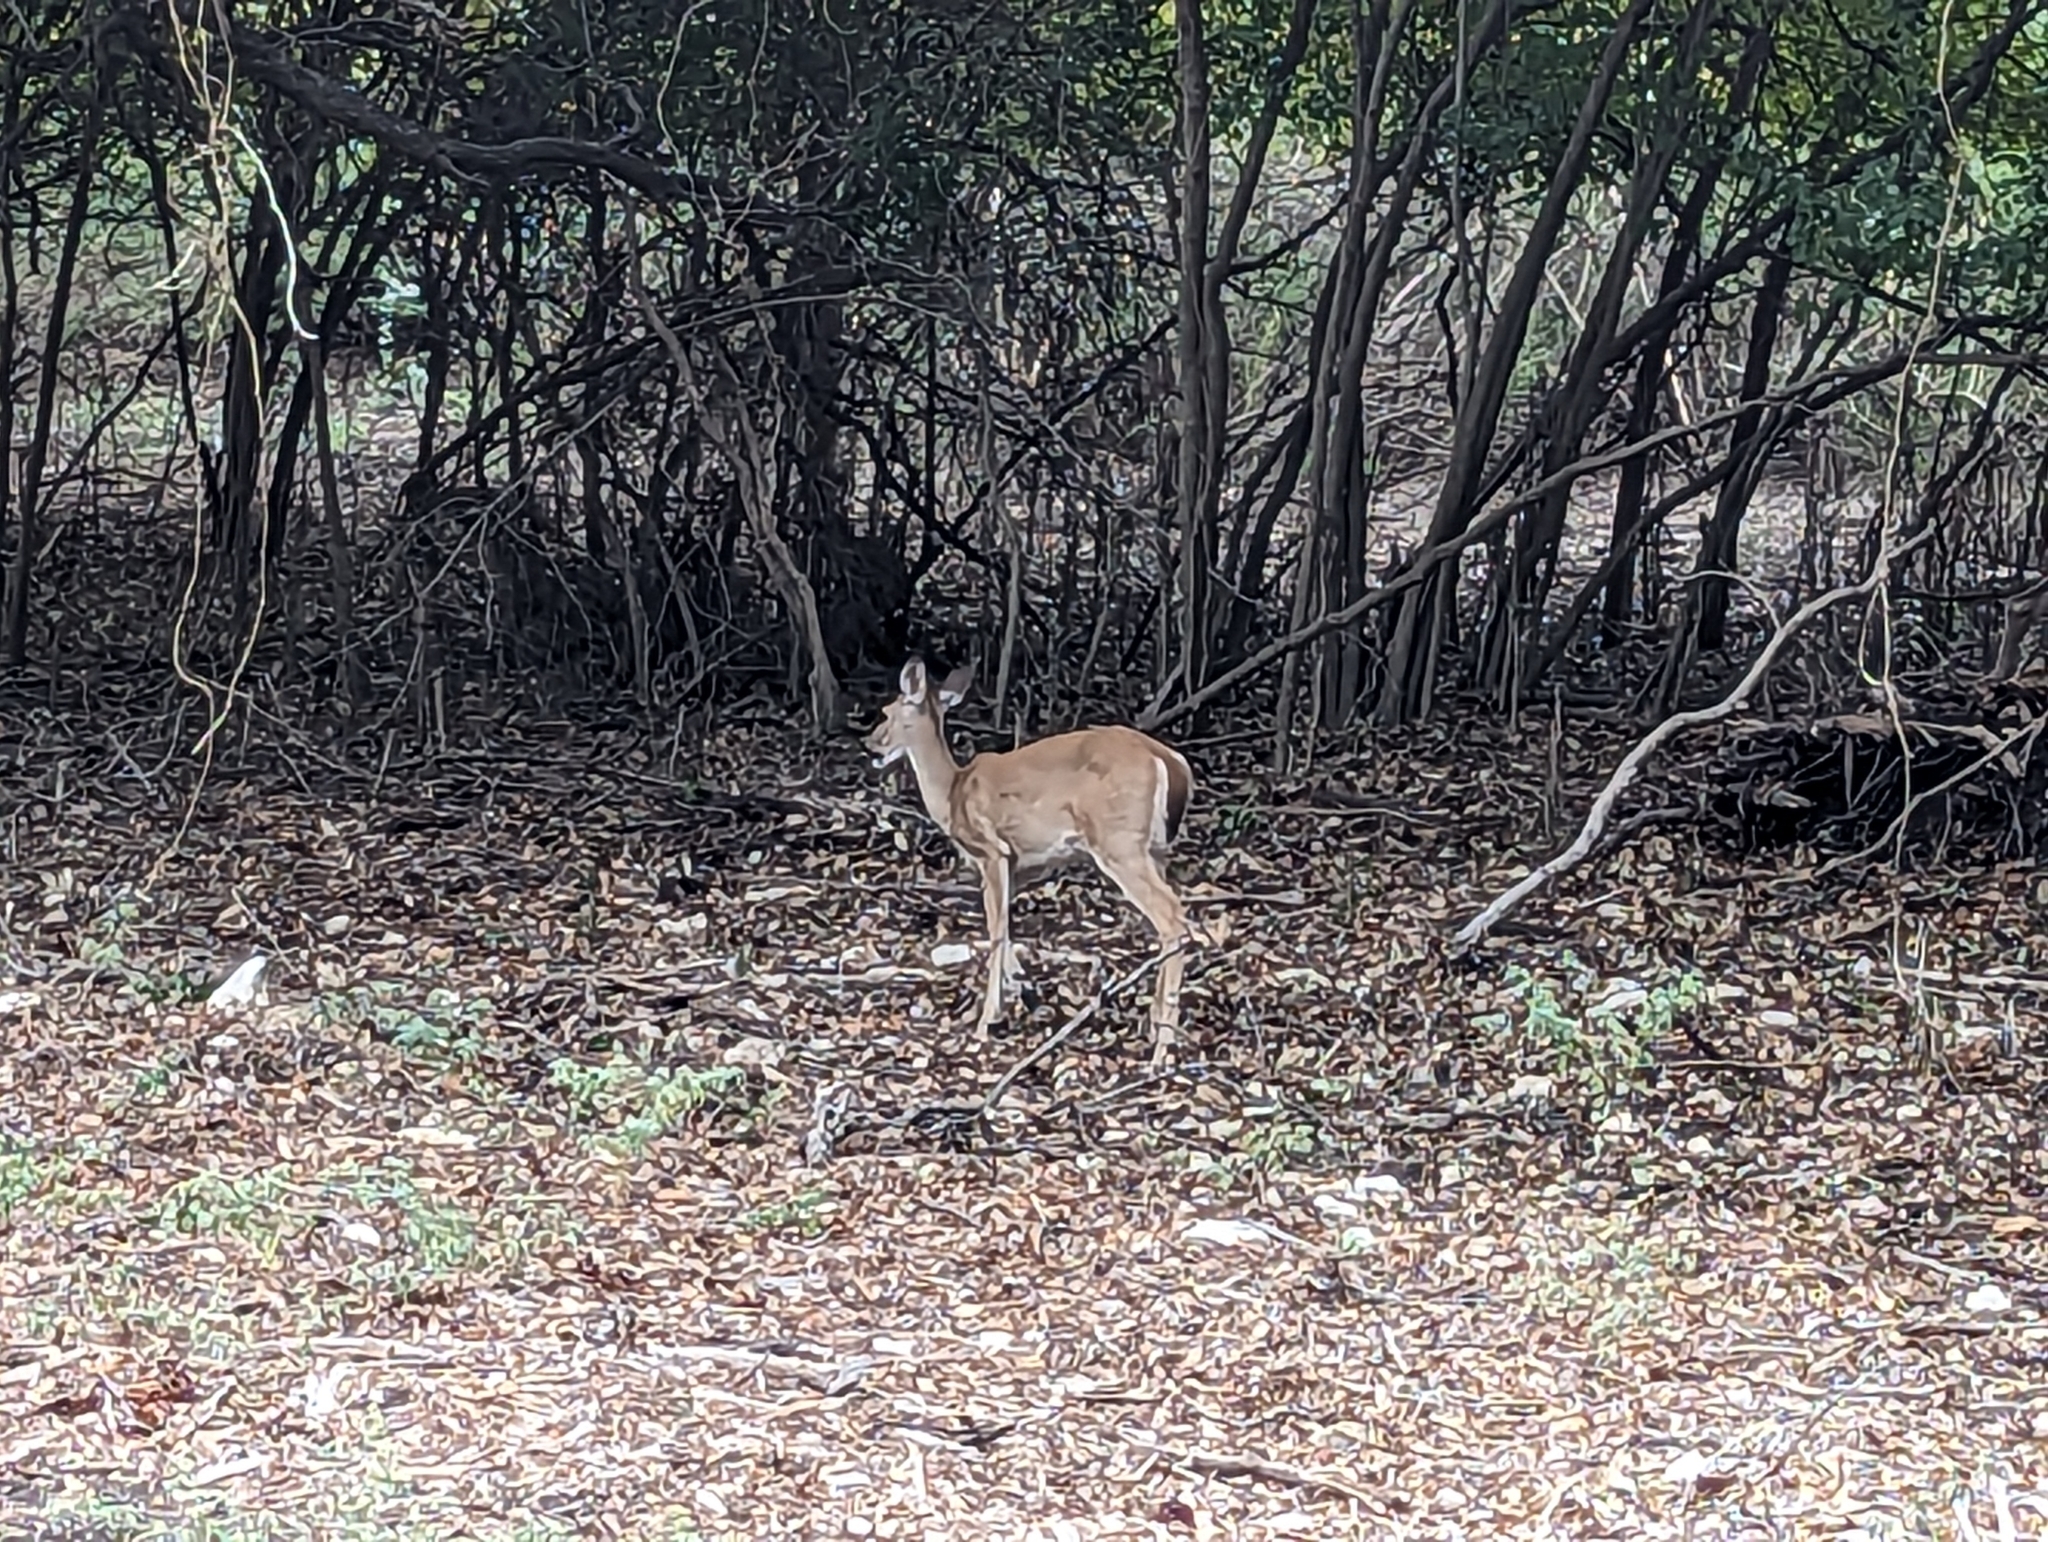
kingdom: Animalia
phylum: Chordata
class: Mammalia
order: Artiodactyla
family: Cervidae
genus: Odocoileus
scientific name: Odocoileus virginianus
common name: White-tailed deer
